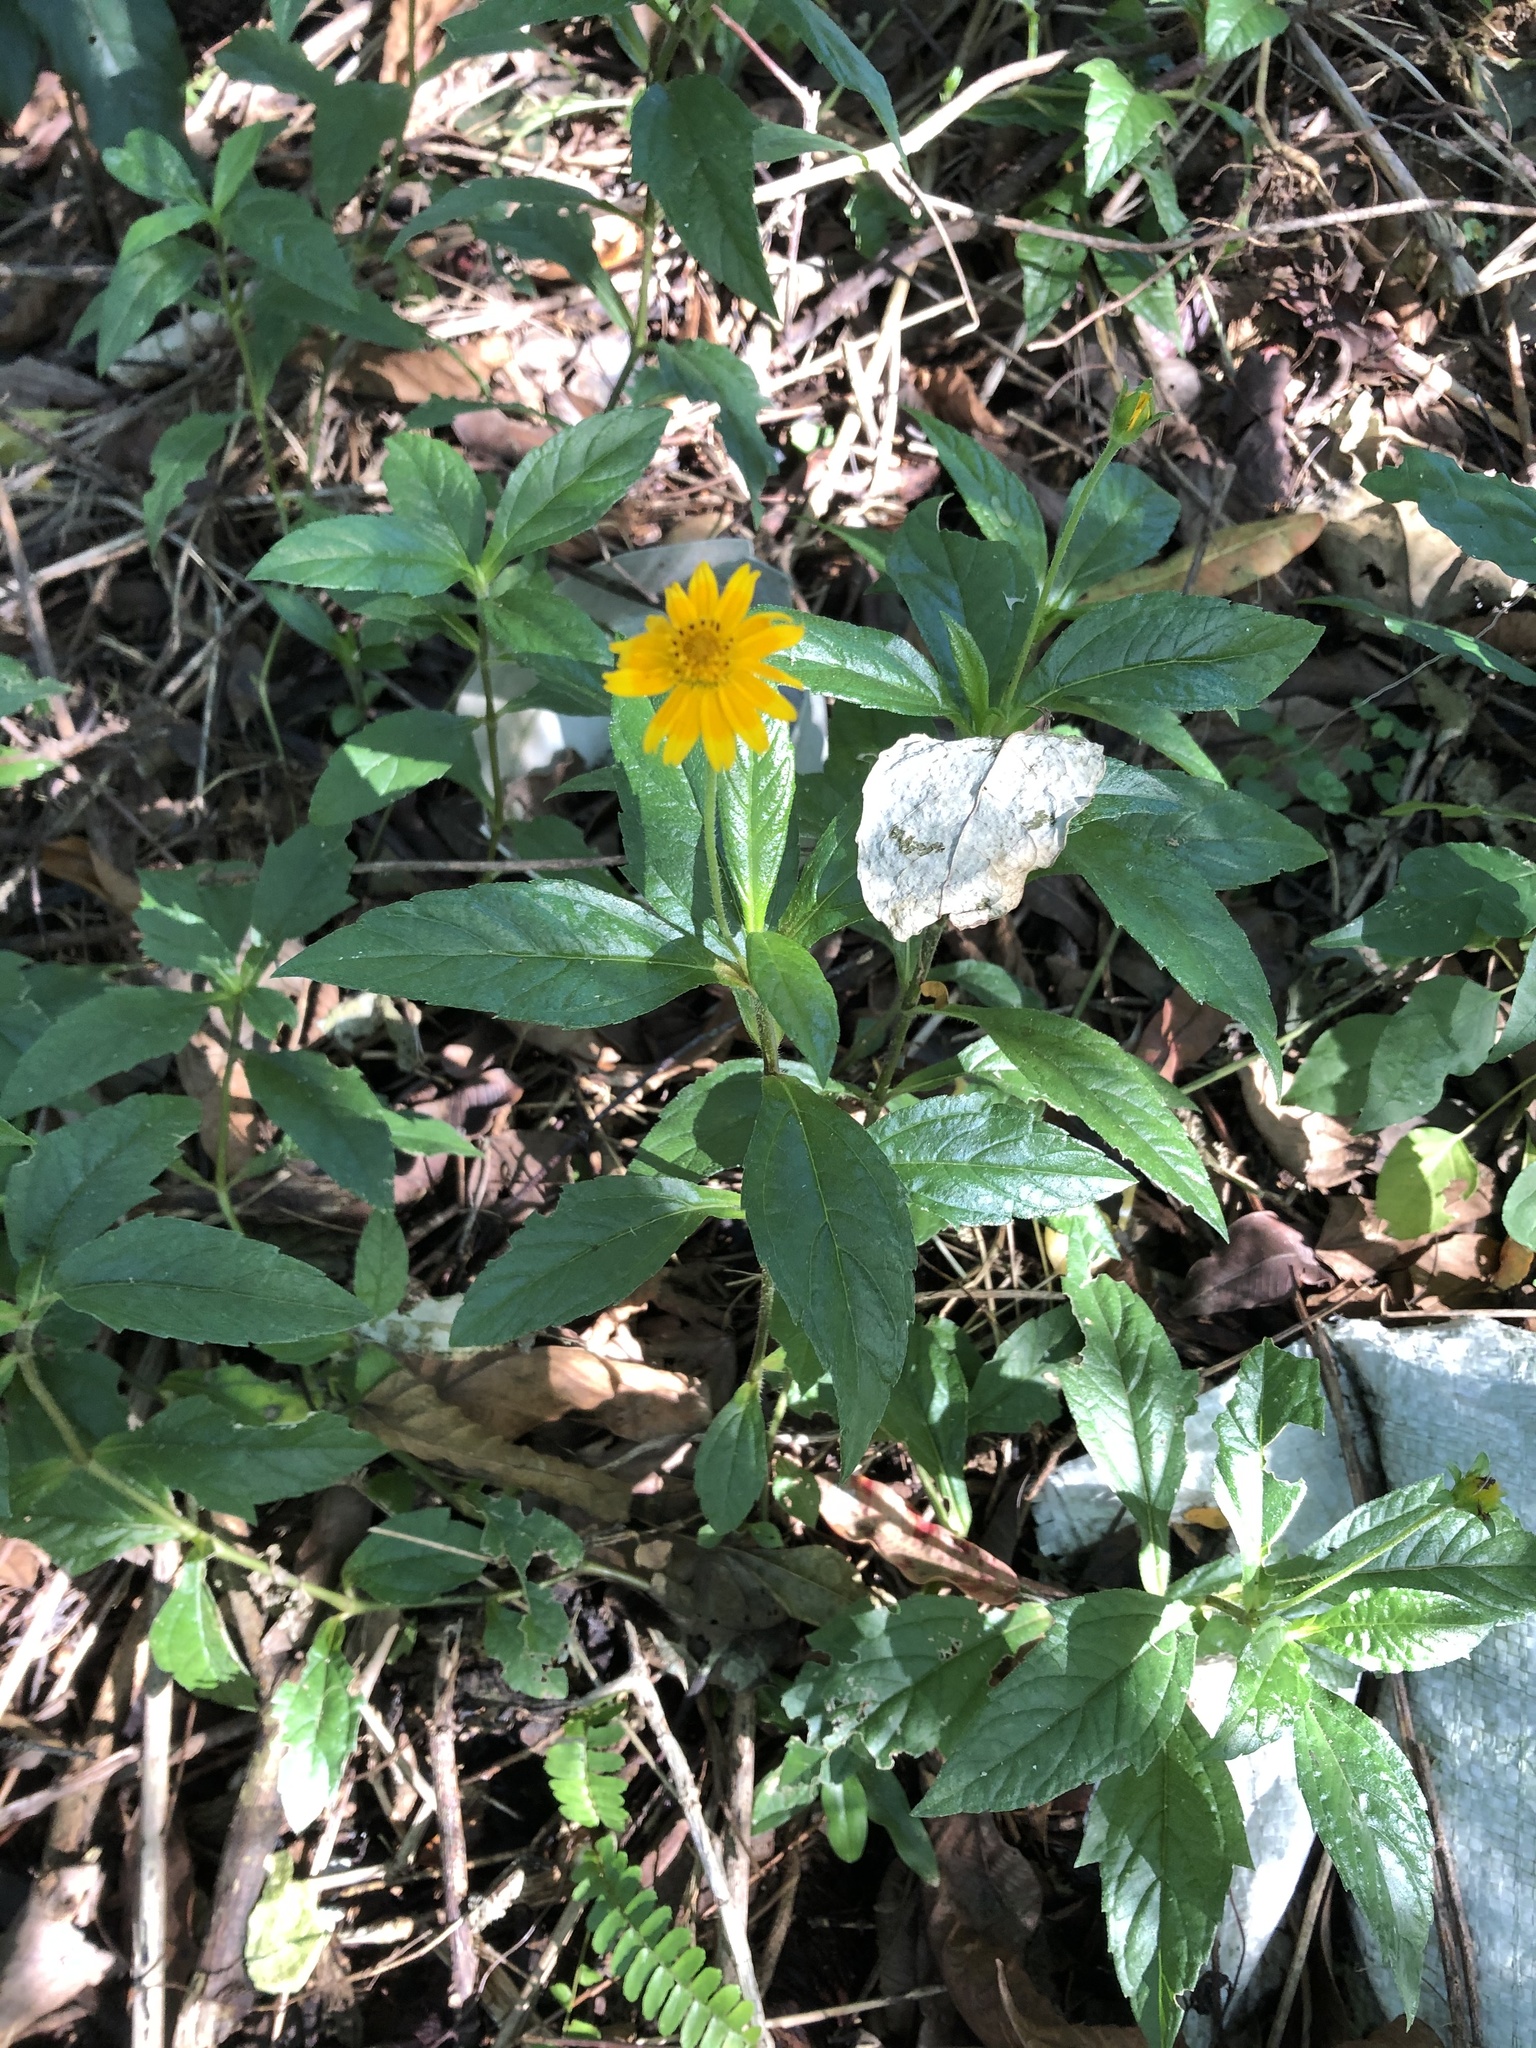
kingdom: Plantae
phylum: Tracheophyta
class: Magnoliopsida
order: Asterales
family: Asteraceae
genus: Sphagneticola
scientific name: Sphagneticola trilobata
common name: Bay biscayne creeping-oxeye
